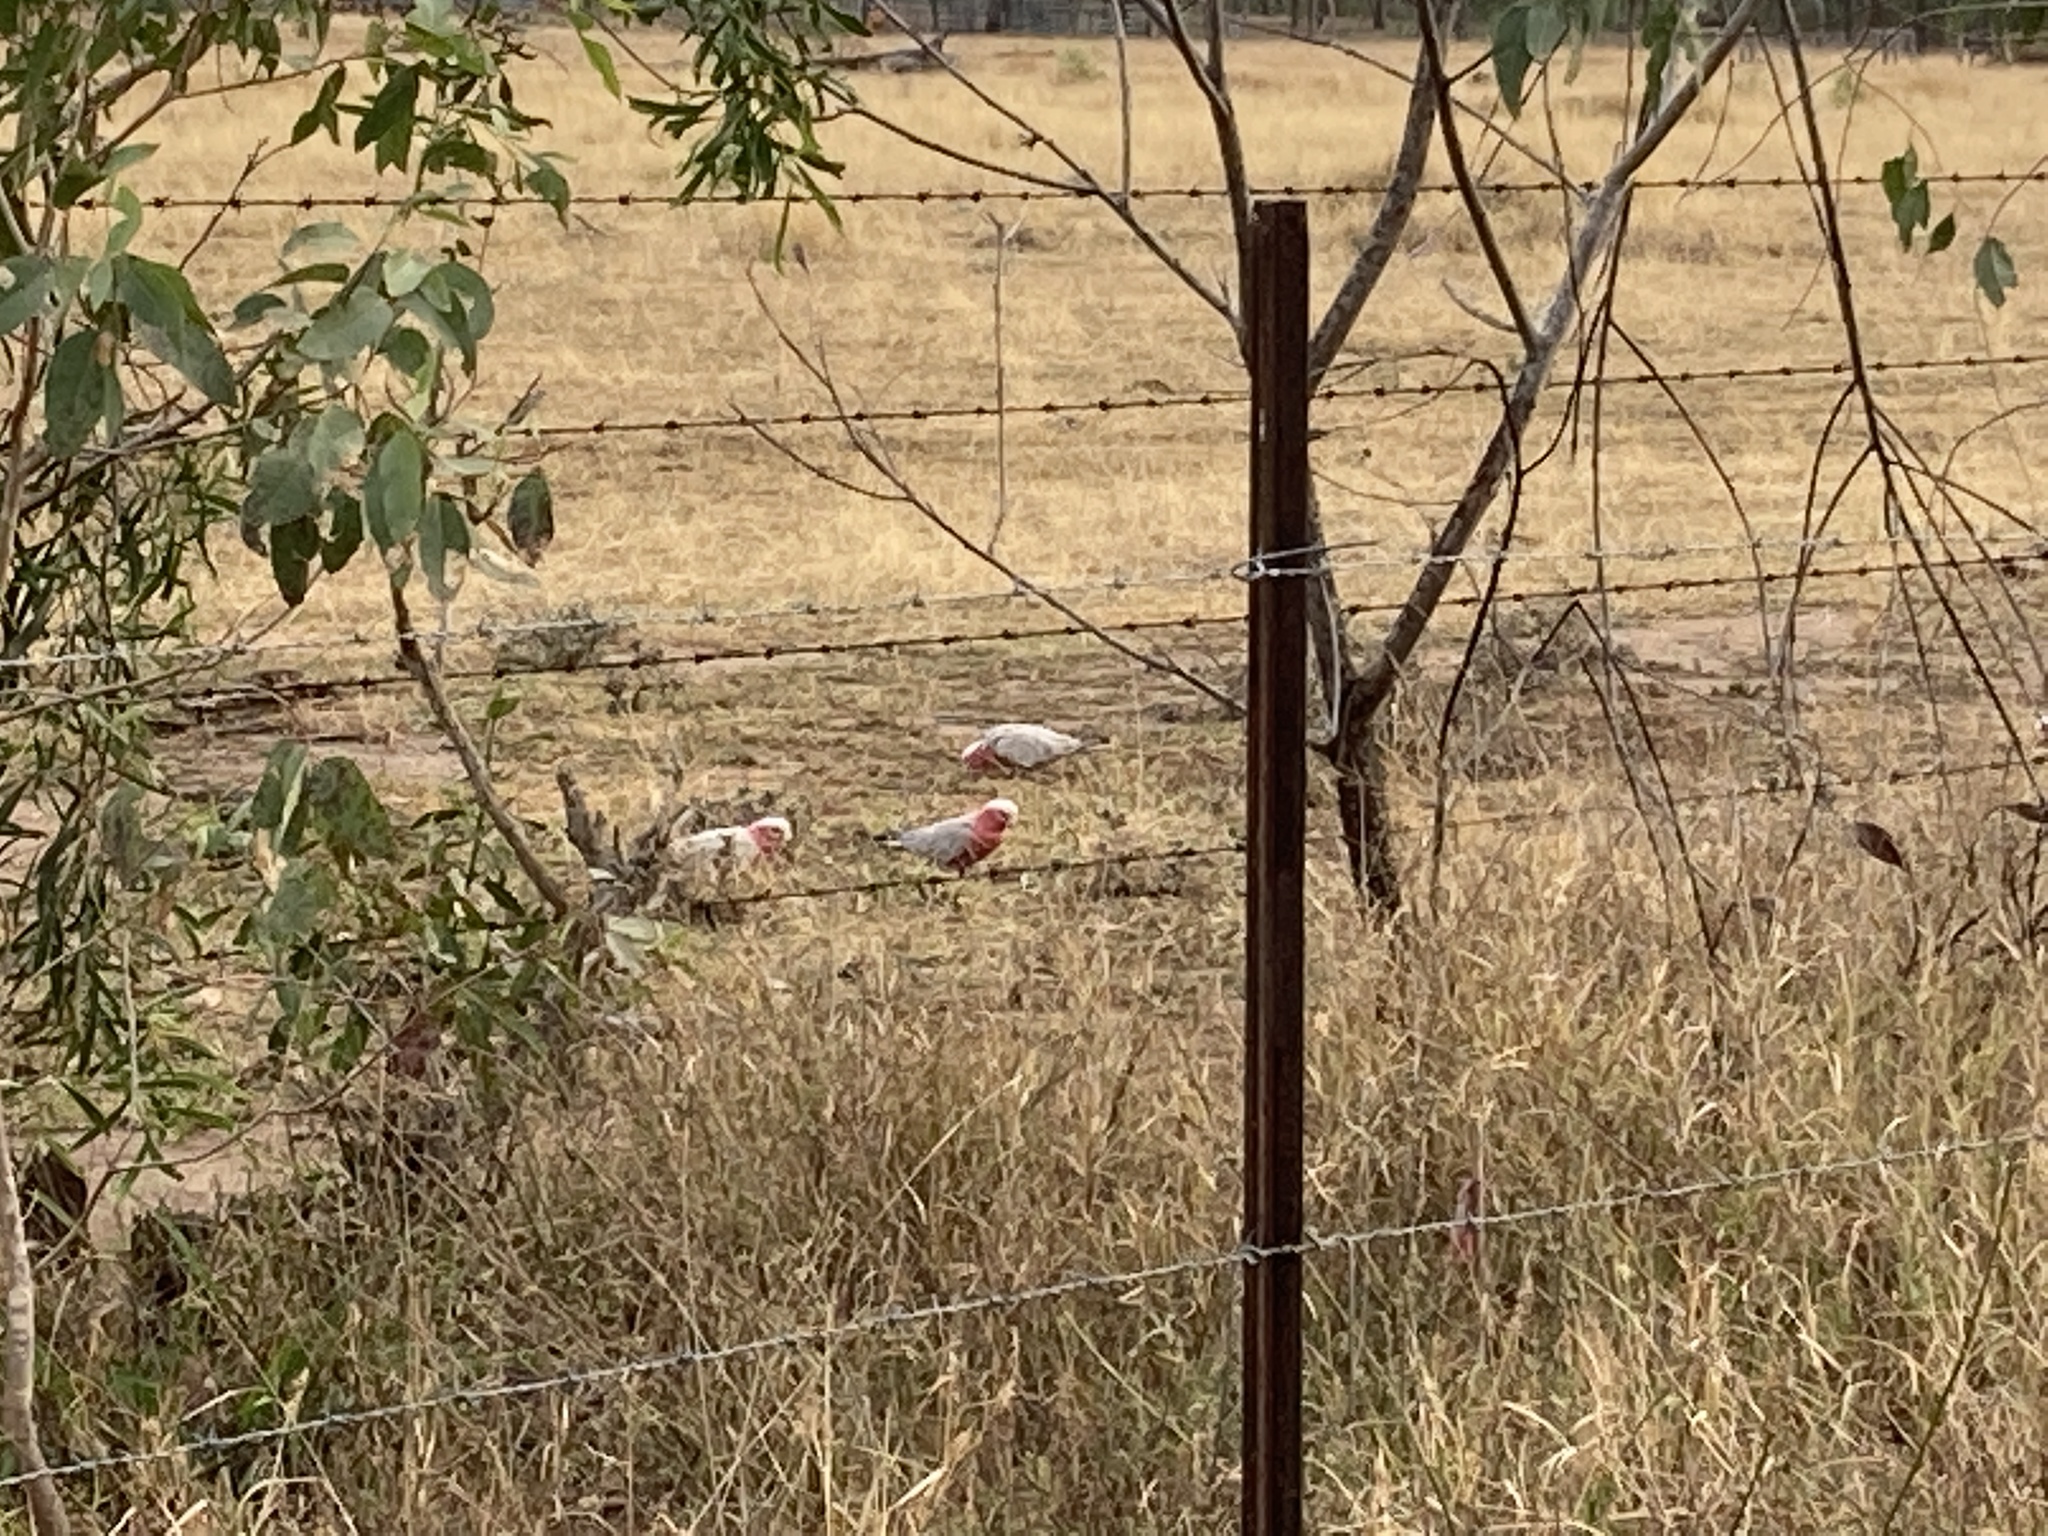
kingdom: Animalia
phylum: Chordata
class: Aves
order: Psittaciformes
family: Psittacidae
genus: Eolophus
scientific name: Eolophus roseicapilla
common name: Galah
